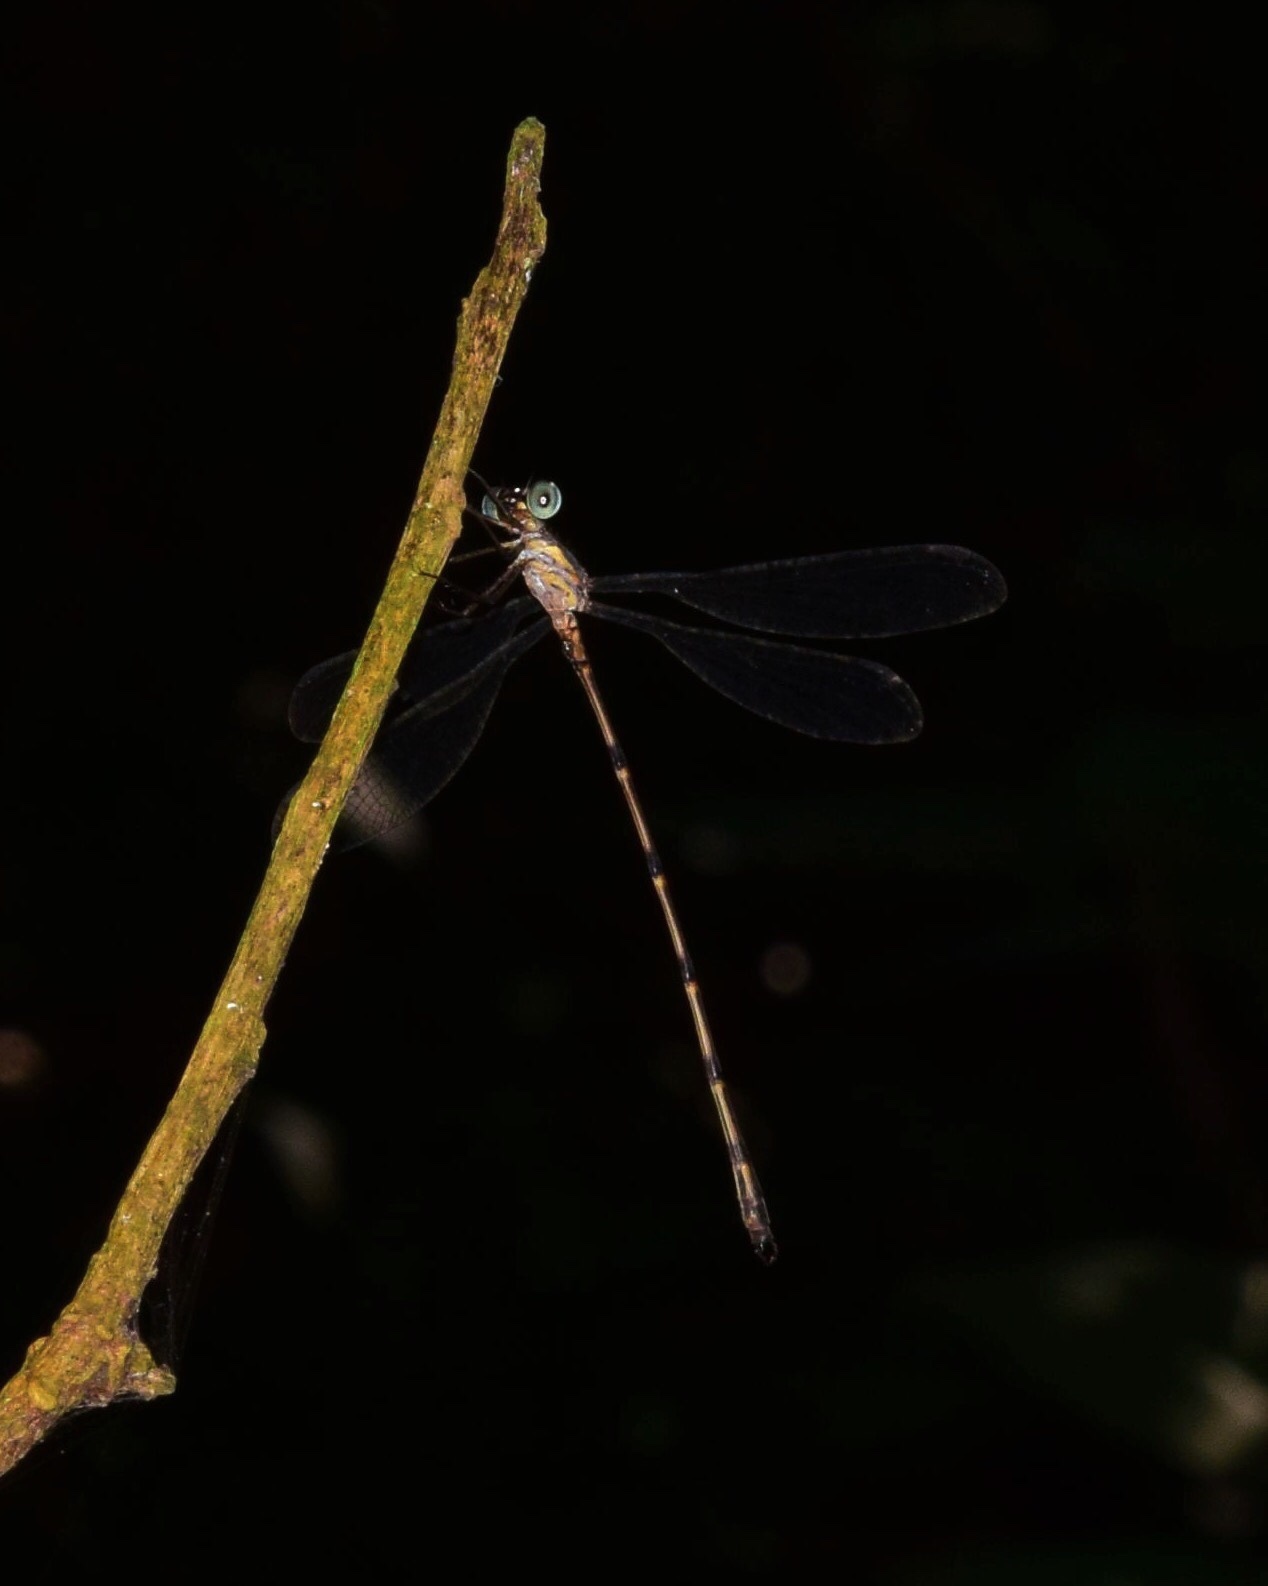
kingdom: Animalia
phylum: Arthropoda
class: Insecta
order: Odonata
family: Synlestidae
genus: Chlorolestes
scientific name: Chlorolestes tessellatus
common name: Forest malachite
